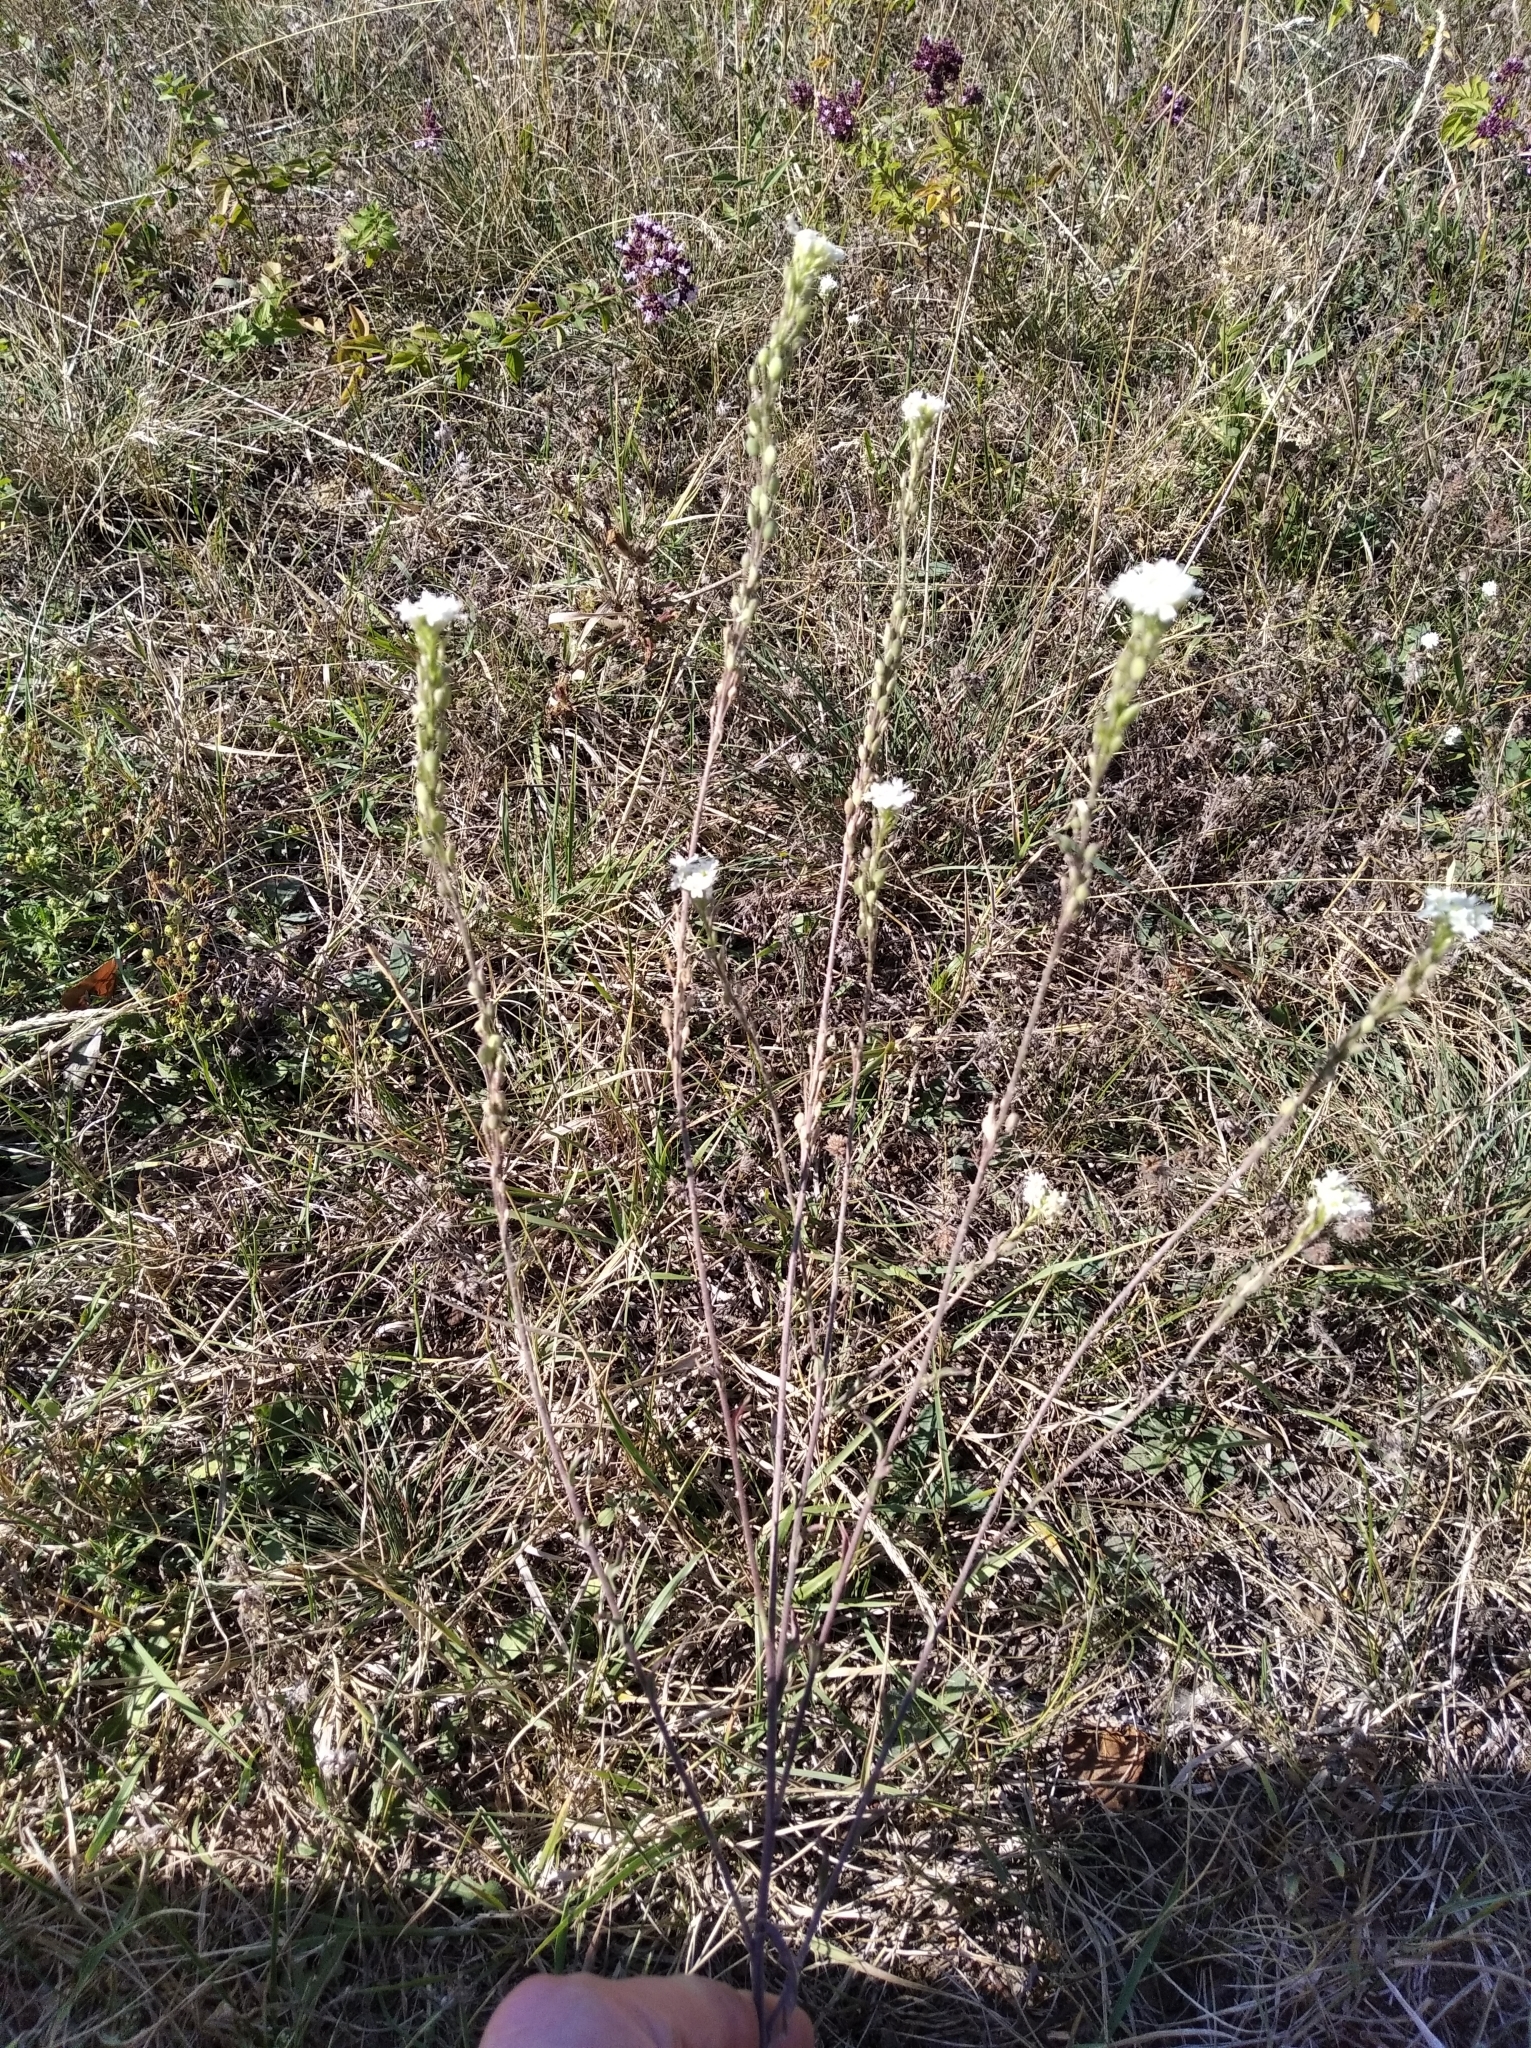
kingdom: Plantae
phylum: Tracheophyta
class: Magnoliopsida
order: Brassicales
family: Brassicaceae
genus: Berteroa
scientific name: Berteroa incana
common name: Hoary alison
